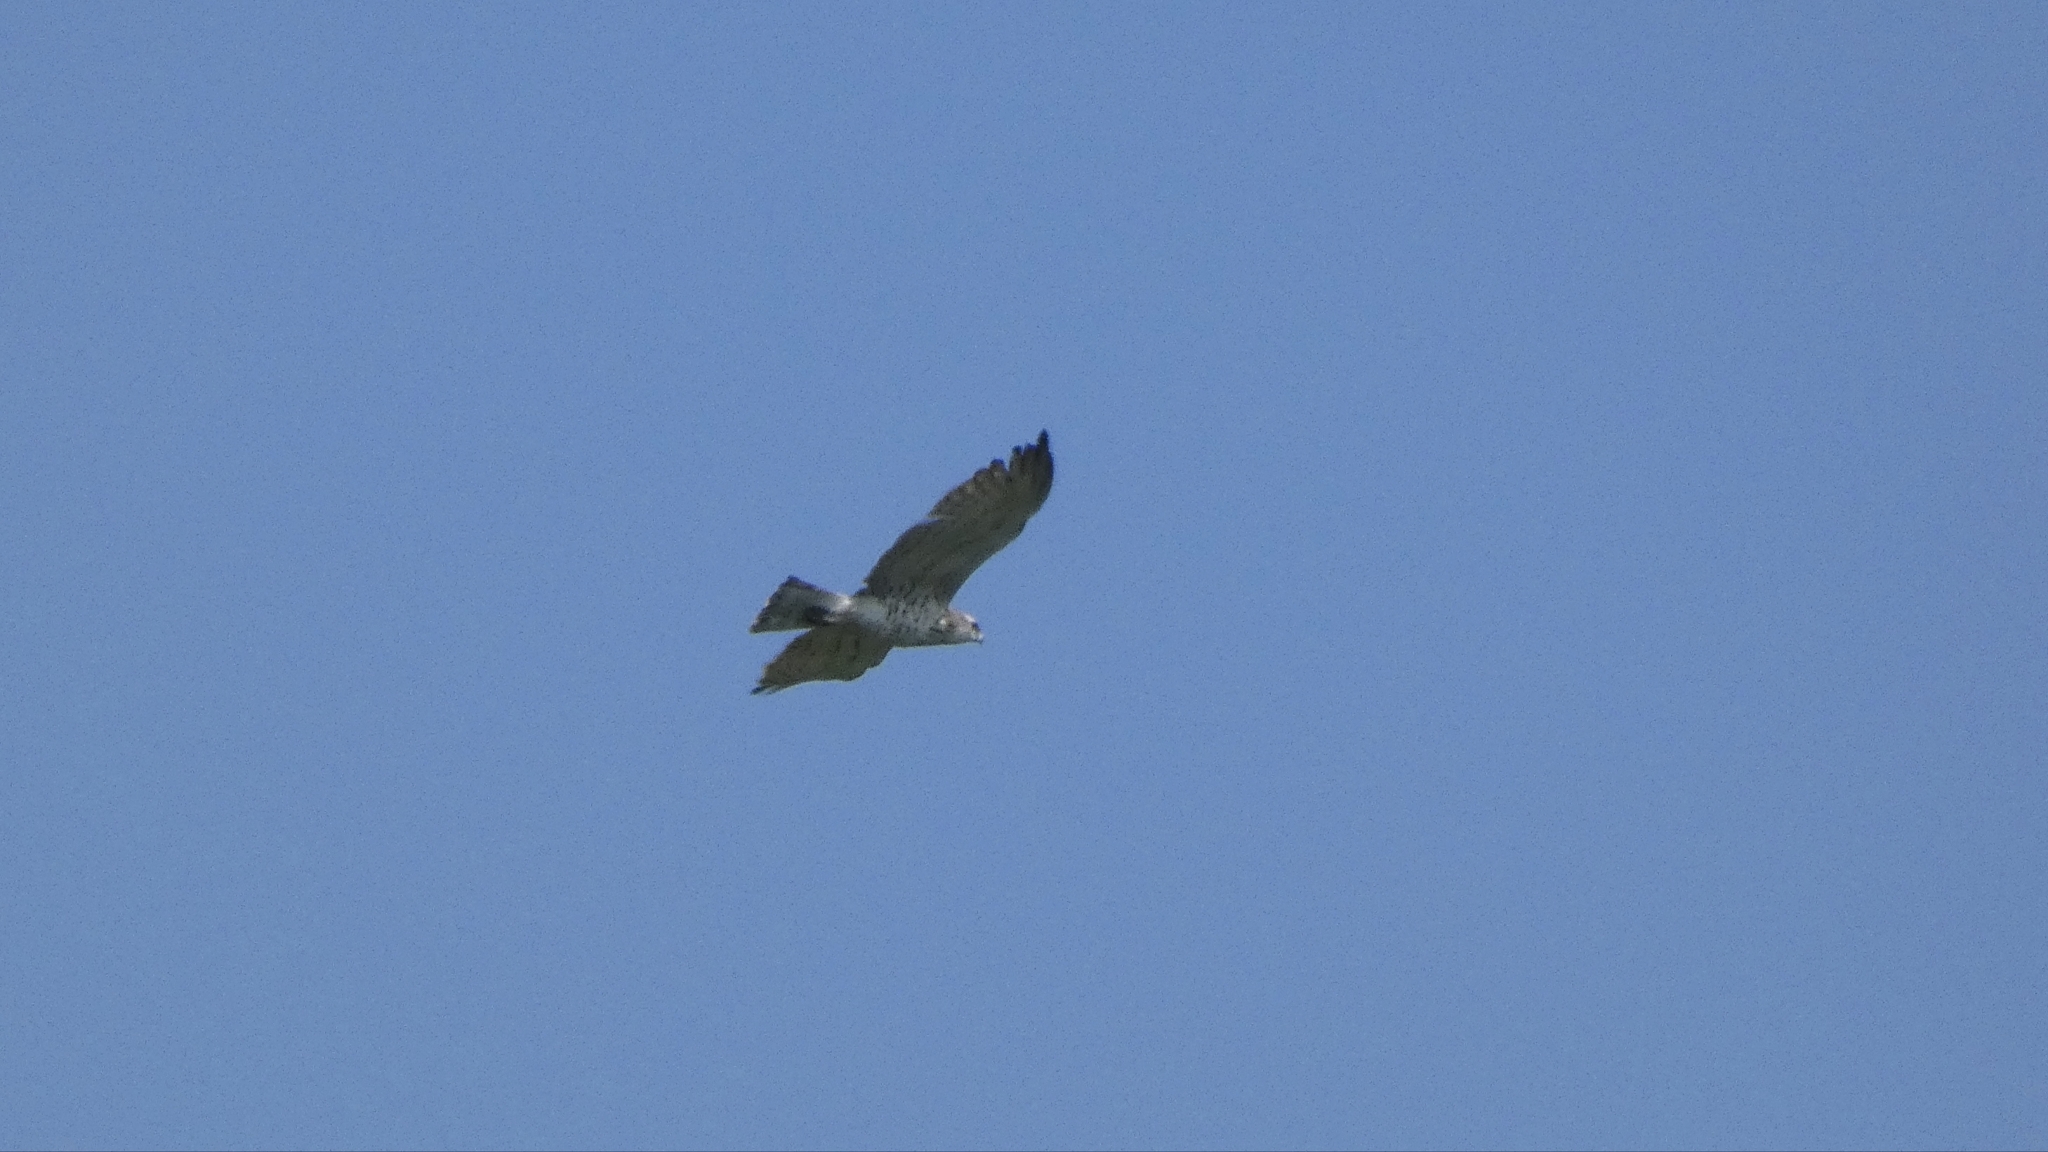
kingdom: Animalia
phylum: Chordata
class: Aves
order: Accipitriformes
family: Accipitridae
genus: Circaetus
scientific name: Circaetus gallicus
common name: Short-toed snake eagle
